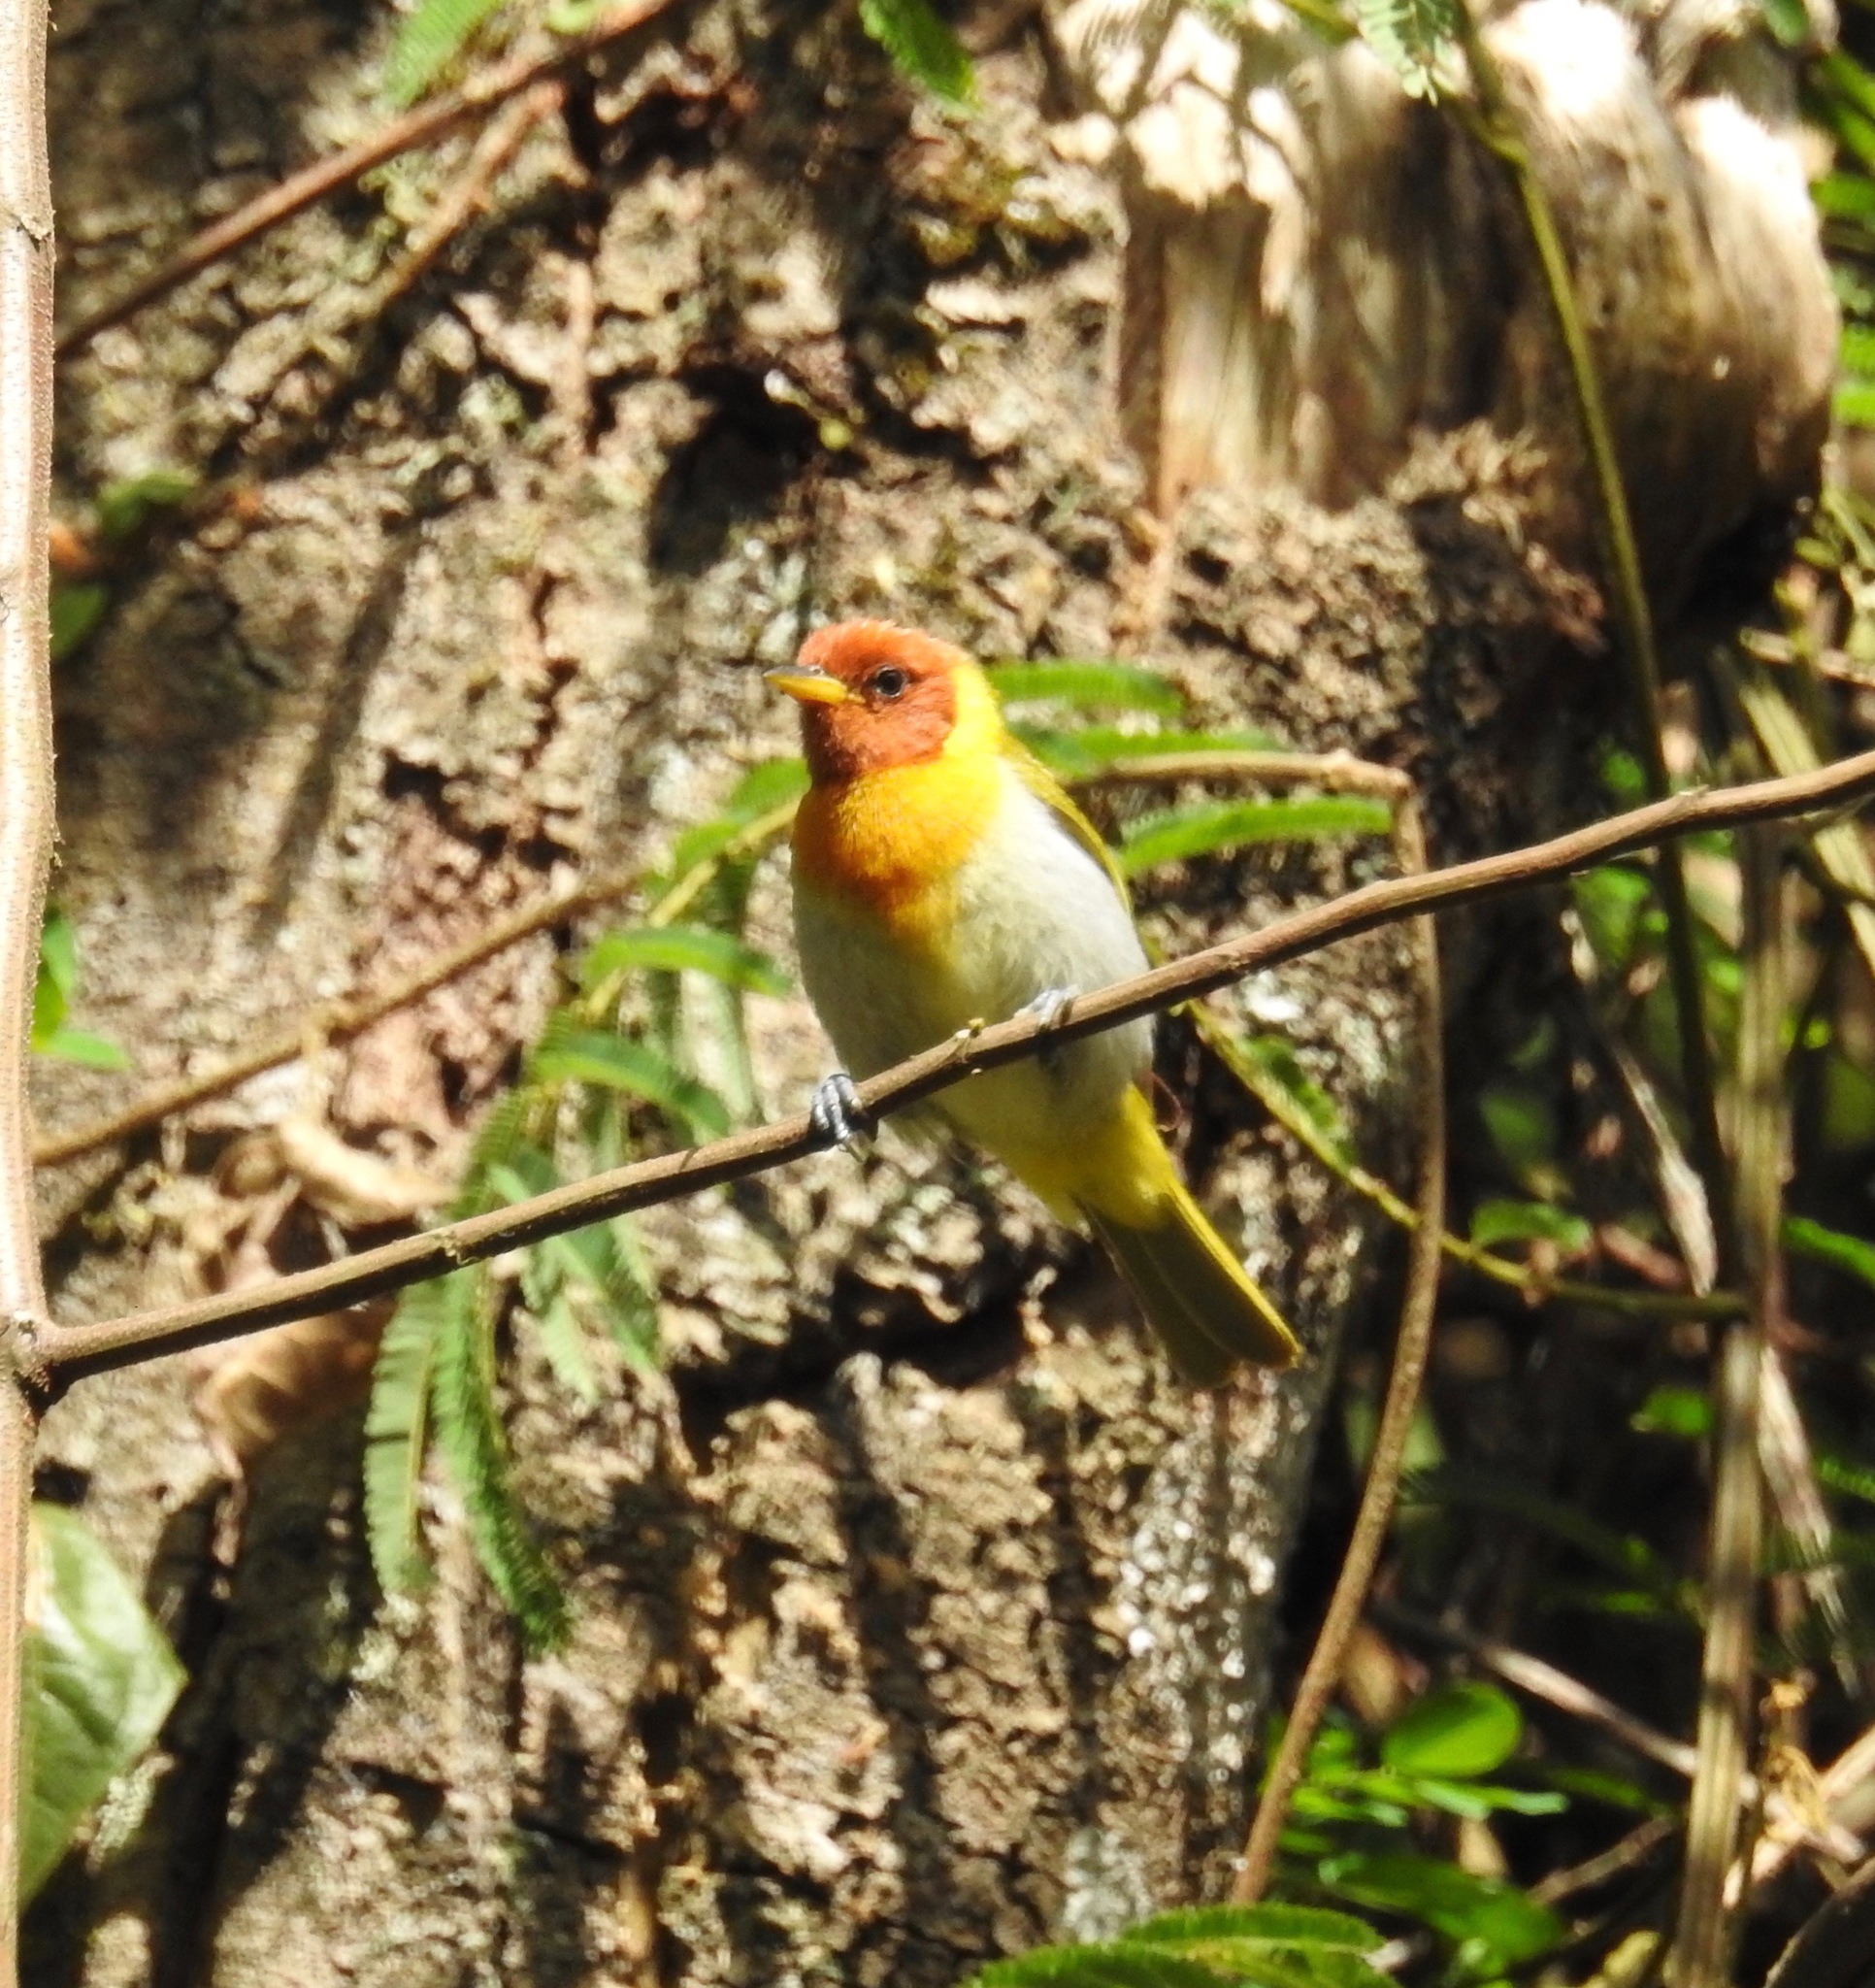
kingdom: Animalia
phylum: Chordata
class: Aves
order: Passeriformes
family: Thraupidae
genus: Hemithraupis
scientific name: Hemithraupis ruficapilla
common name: Rufous-headed tanager
